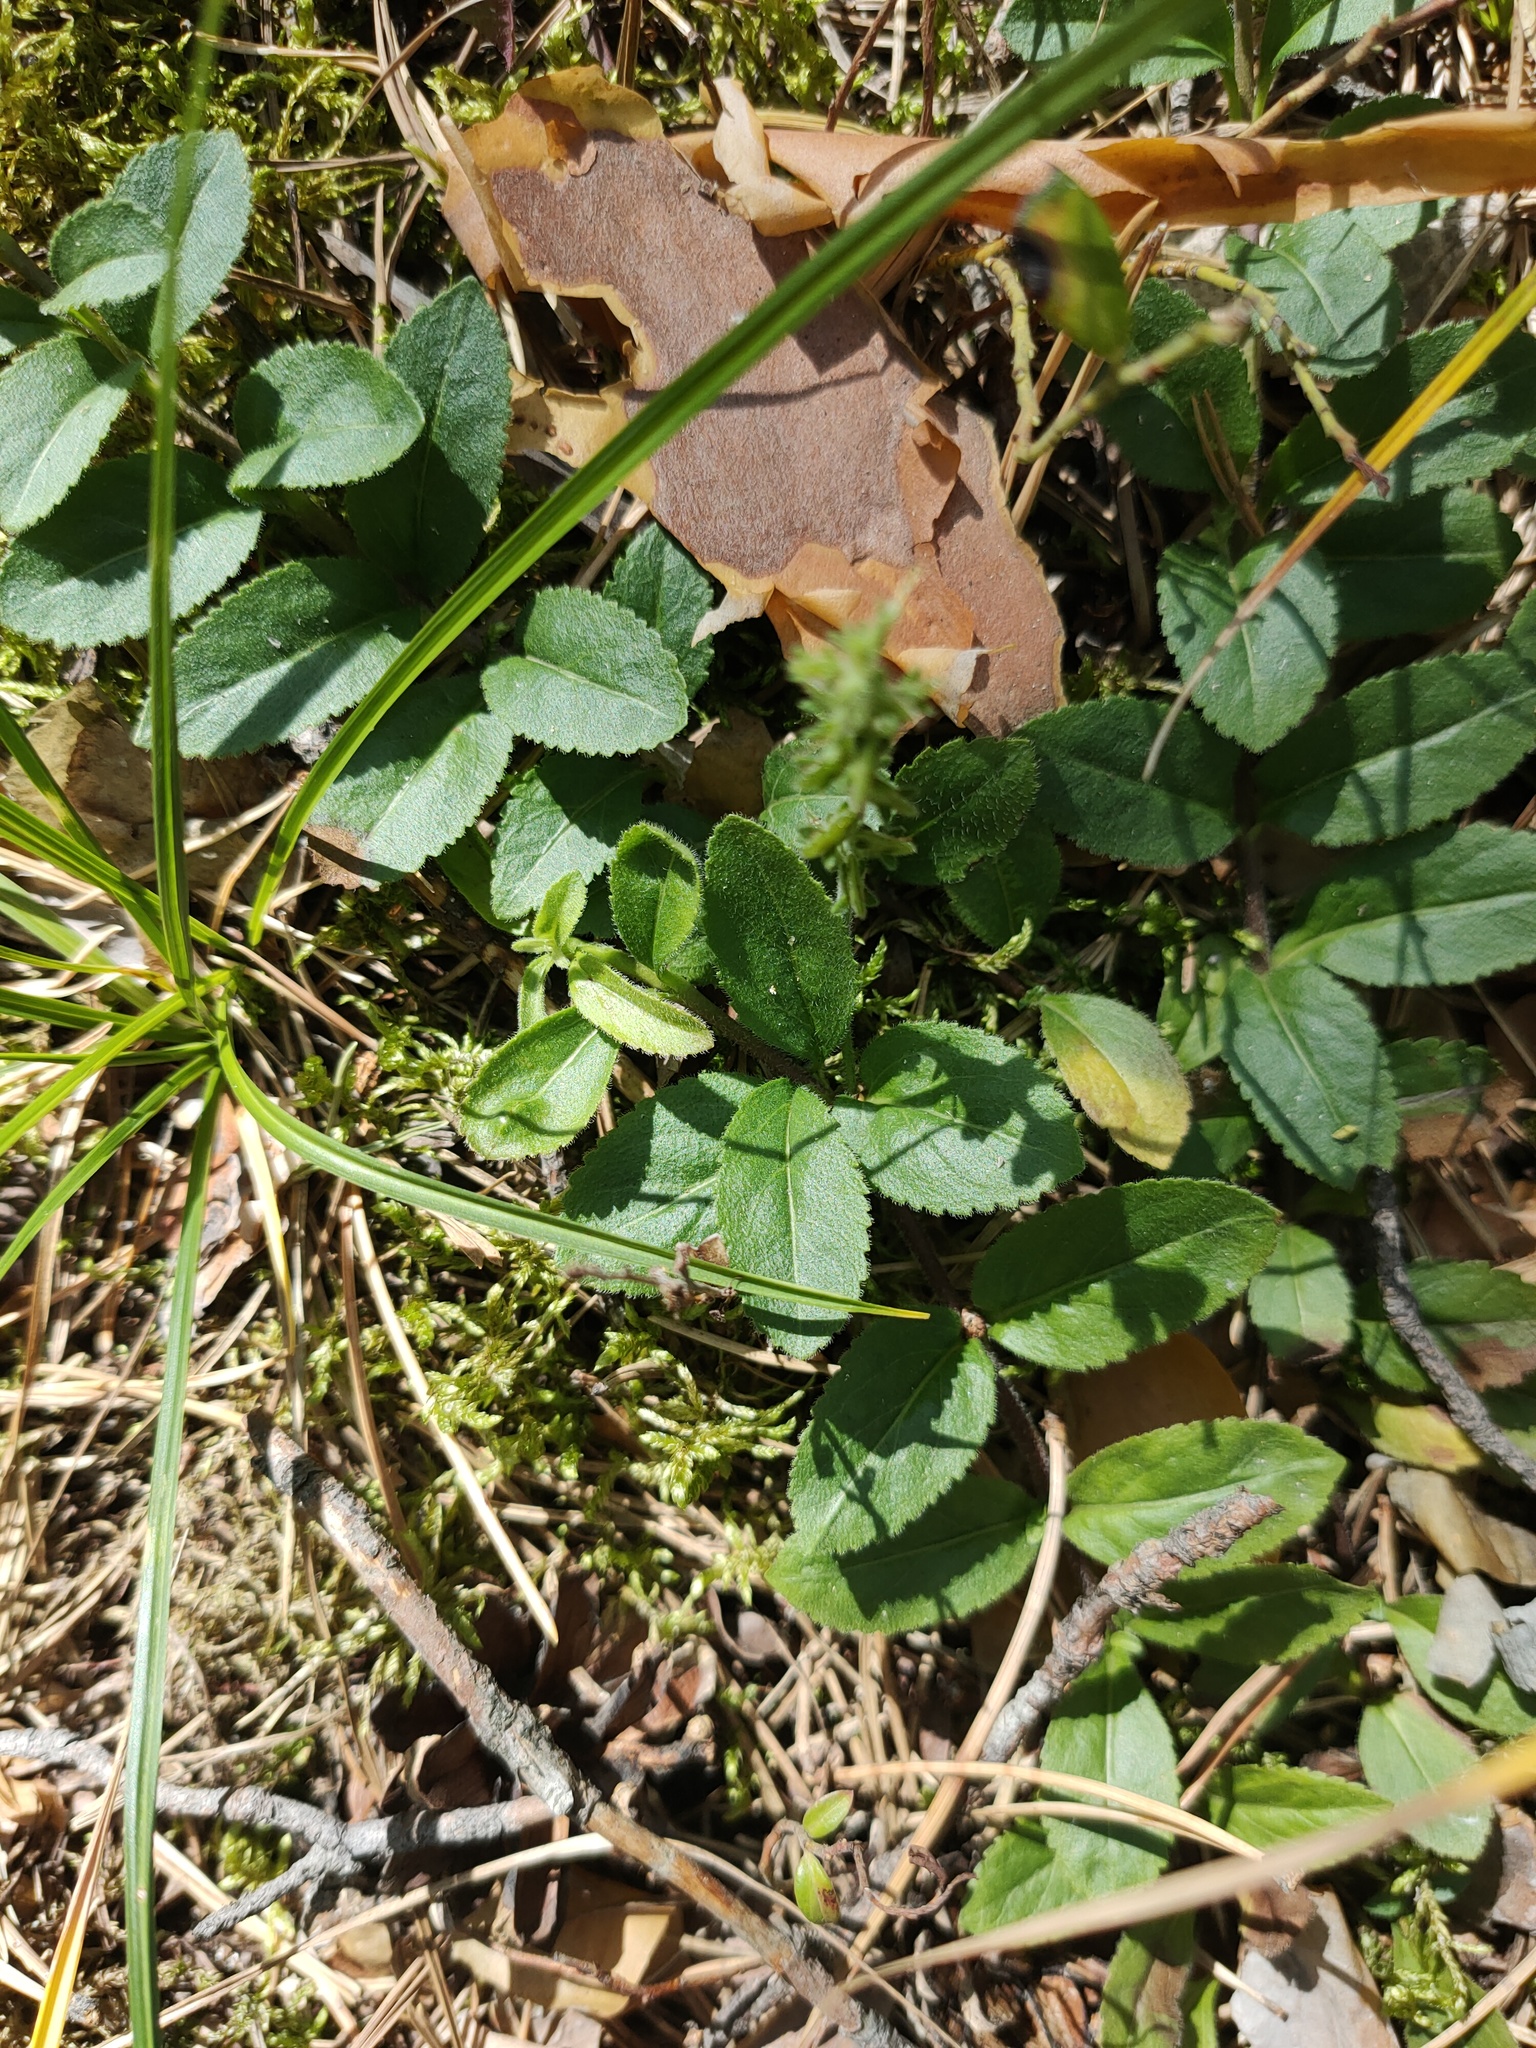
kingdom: Plantae
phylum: Tracheophyta
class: Magnoliopsida
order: Lamiales
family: Plantaginaceae
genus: Veronica
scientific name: Veronica officinalis
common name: Common speedwell
